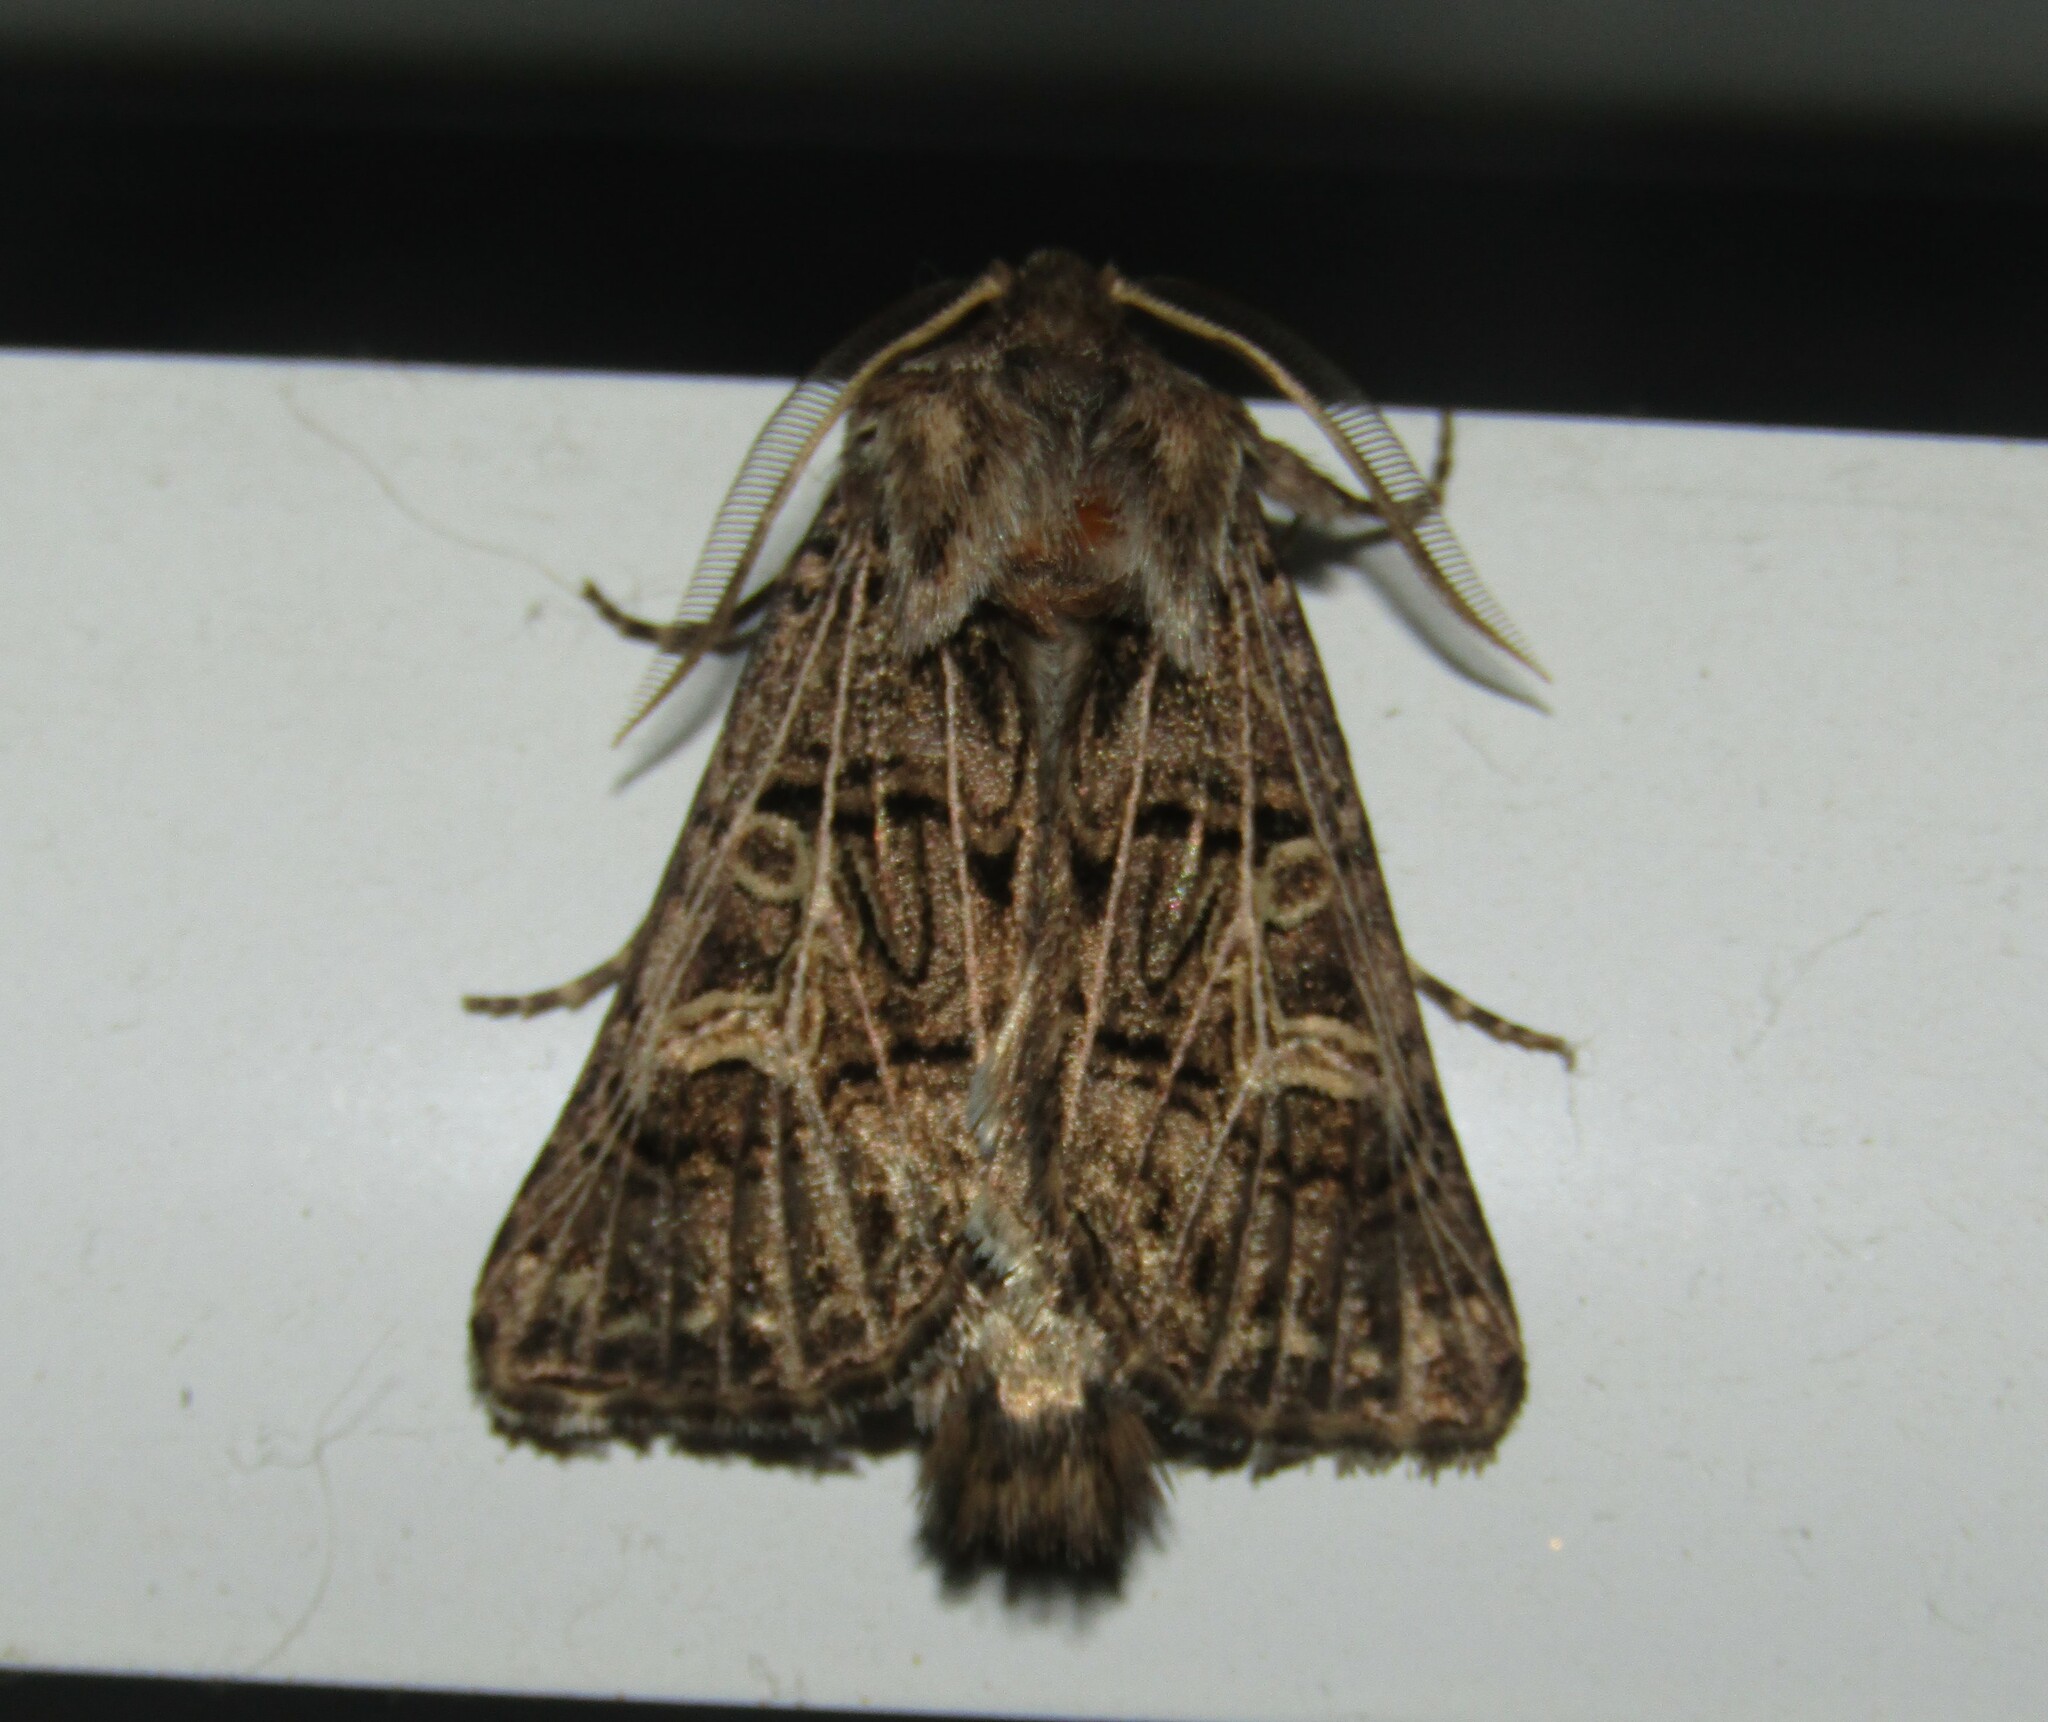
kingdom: Animalia
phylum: Arthropoda
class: Insecta
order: Lepidoptera
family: Noctuidae
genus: Tholera
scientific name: Tholera decimalis
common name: Feathered gothic
